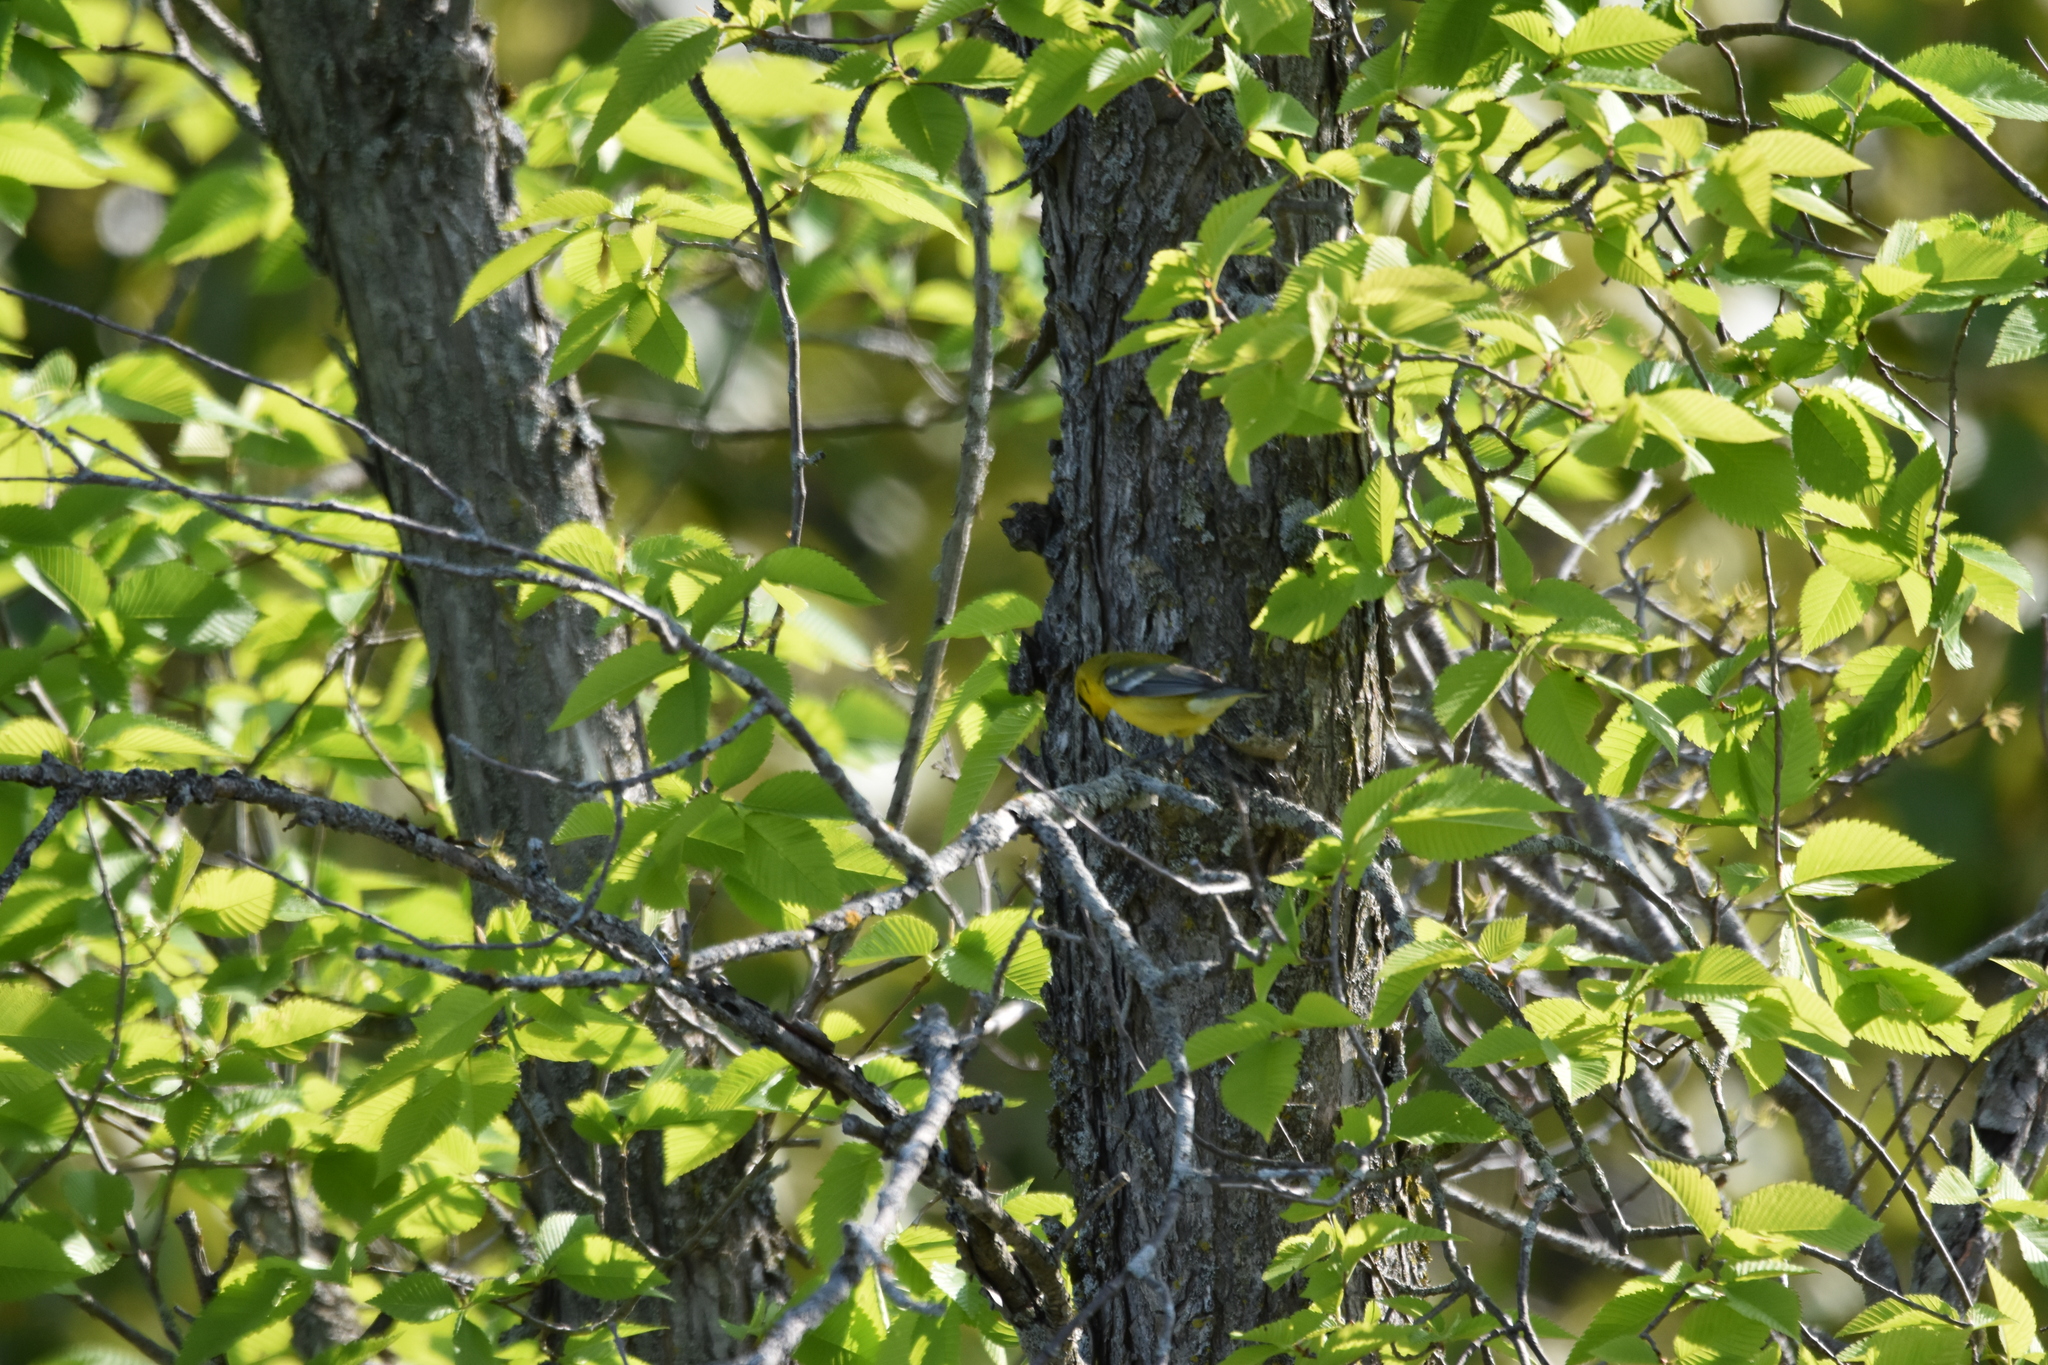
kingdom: Animalia
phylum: Chordata
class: Aves
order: Passeriformes
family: Parulidae
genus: Vermivora
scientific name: Vermivora cyanoptera
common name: Blue-winged warbler
